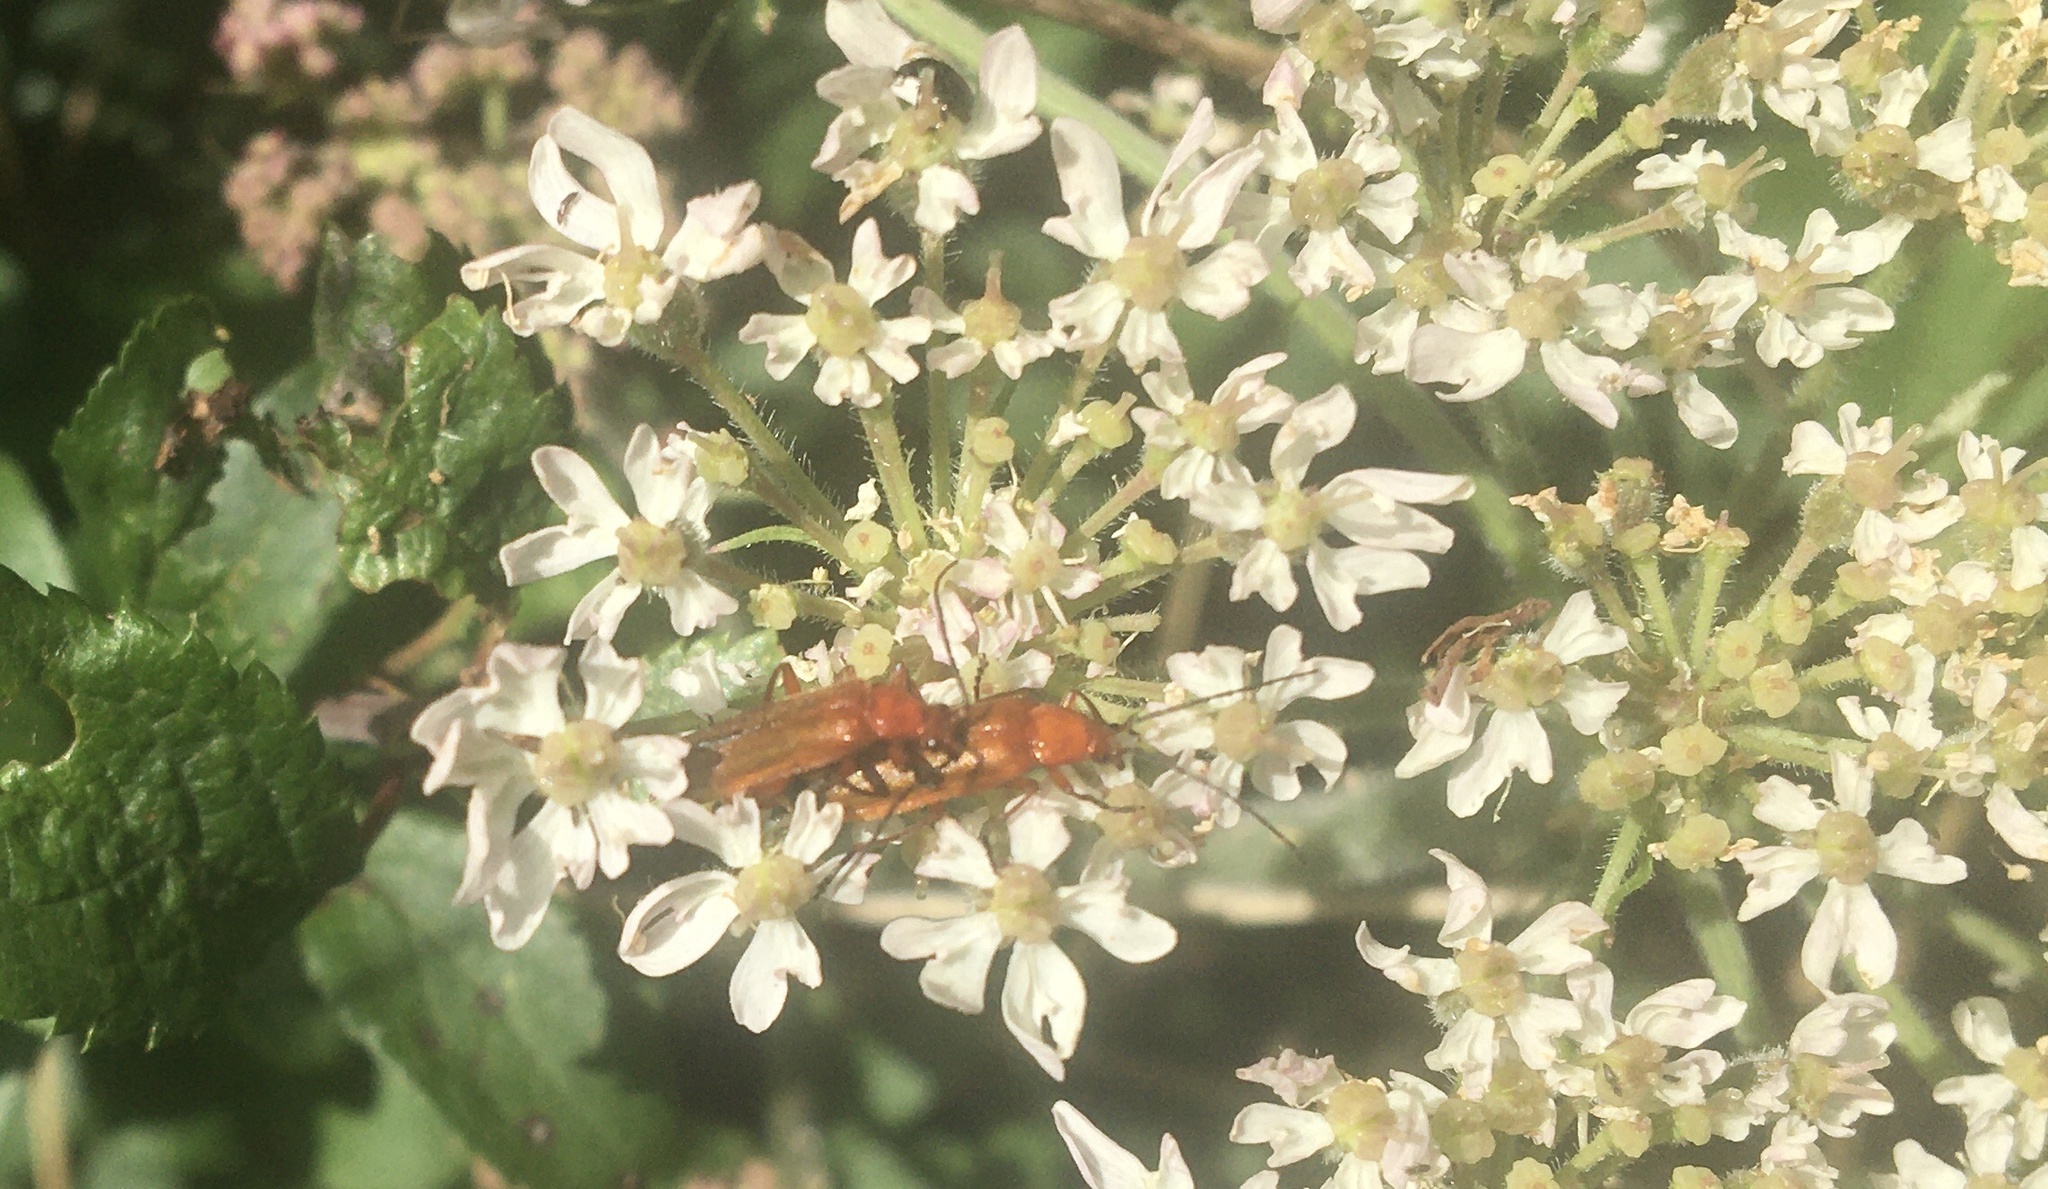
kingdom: Animalia
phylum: Arthropoda
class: Insecta
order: Coleoptera
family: Cantharidae
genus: Rhagonycha
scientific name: Rhagonycha fulva
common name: Common red soldier beetle
